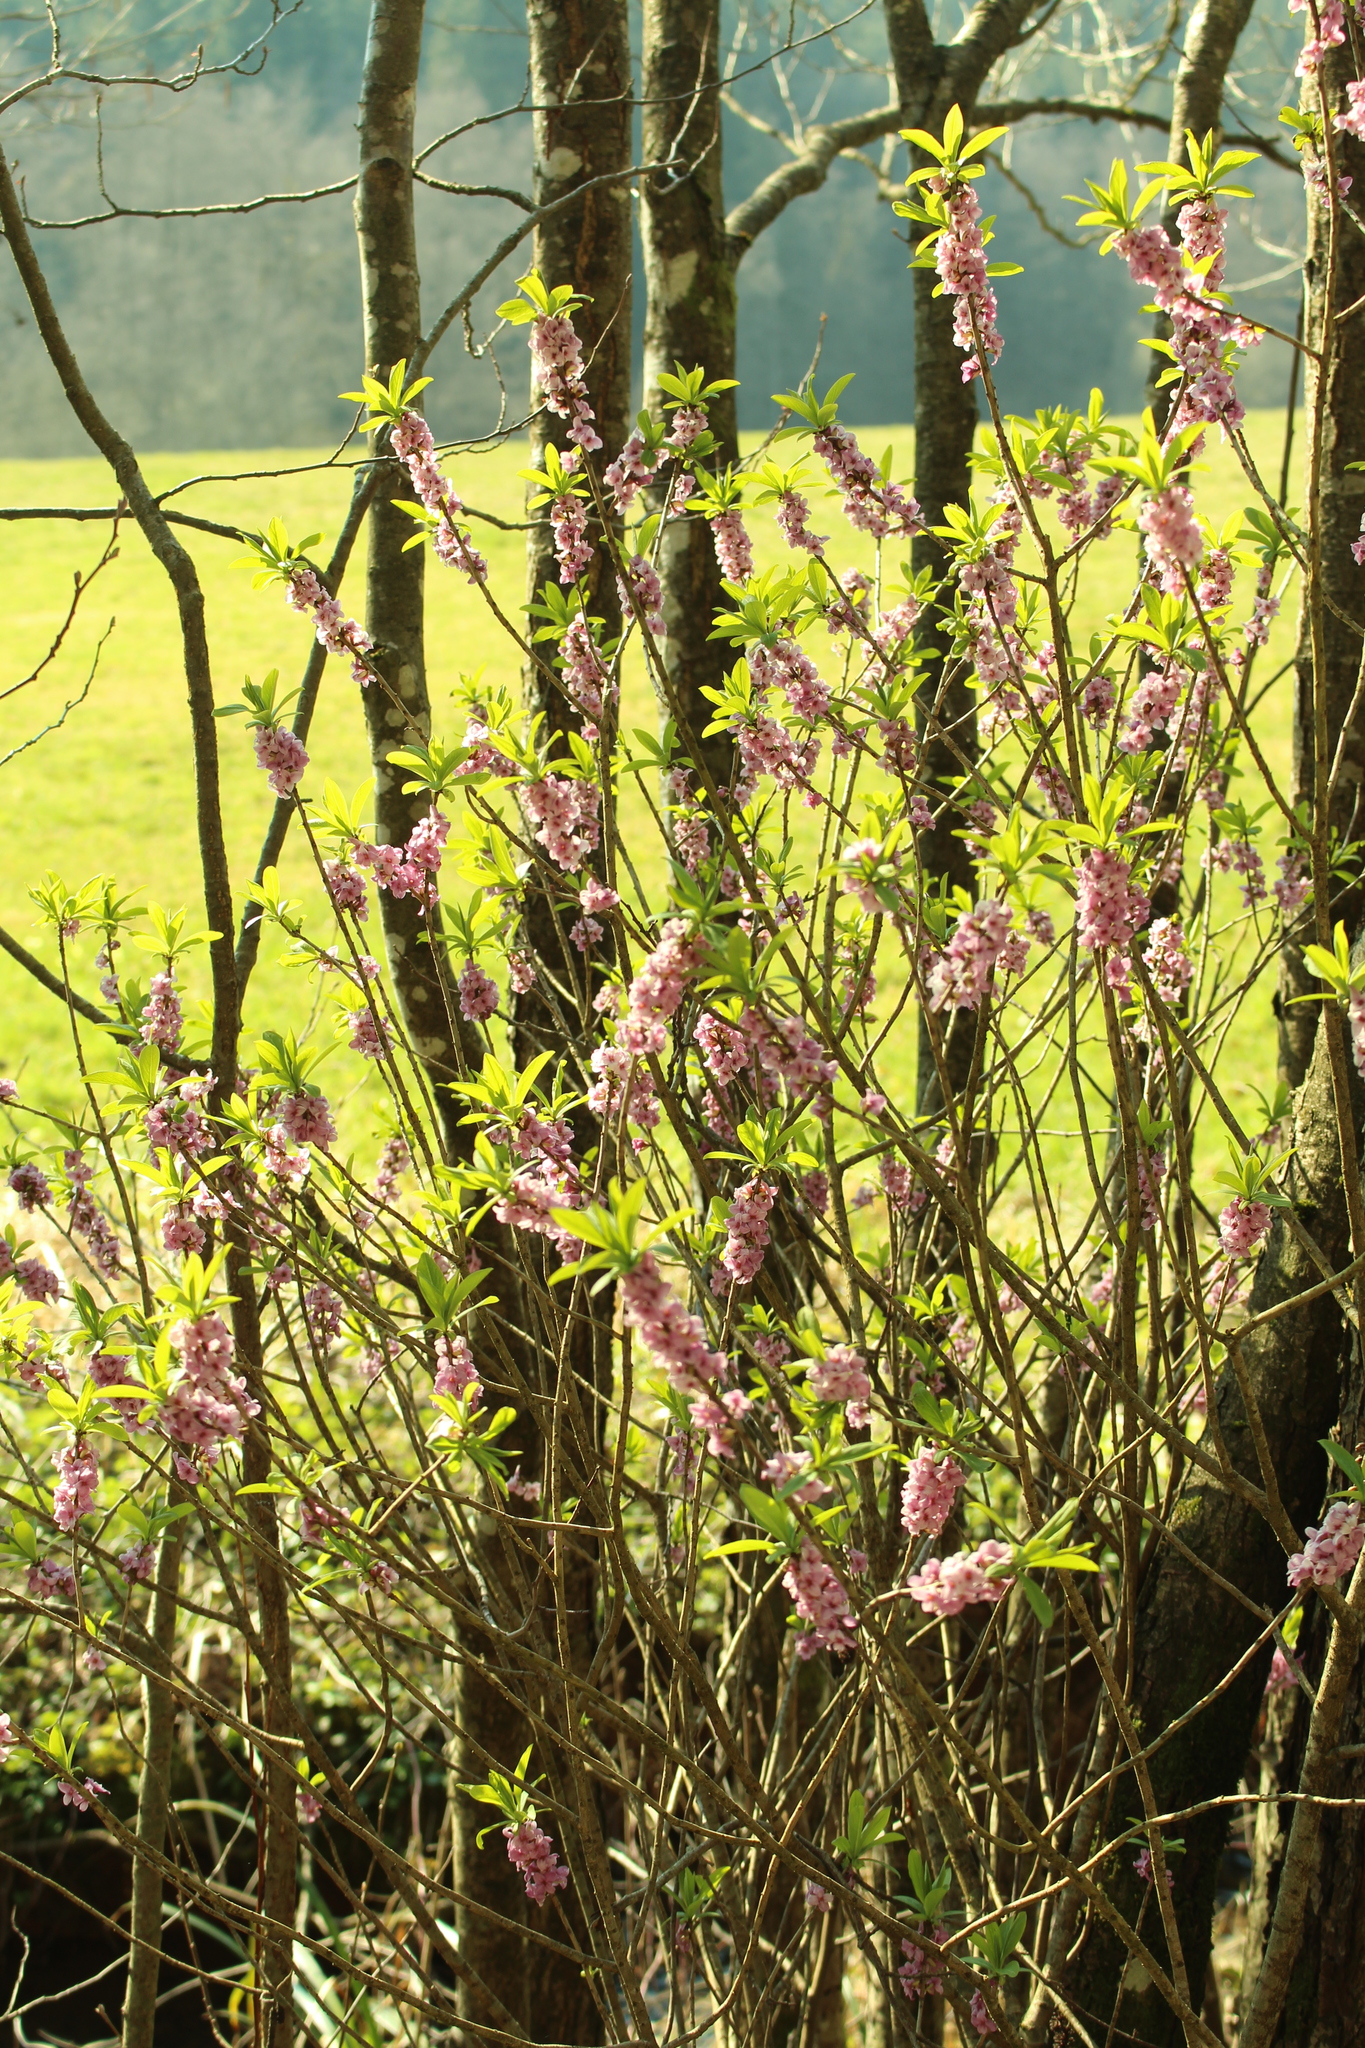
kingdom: Plantae
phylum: Tracheophyta
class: Magnoliopsida
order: Malvales
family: Thymelaeaceae
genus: Daphne
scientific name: Daphne mezereum
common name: Mezereon
